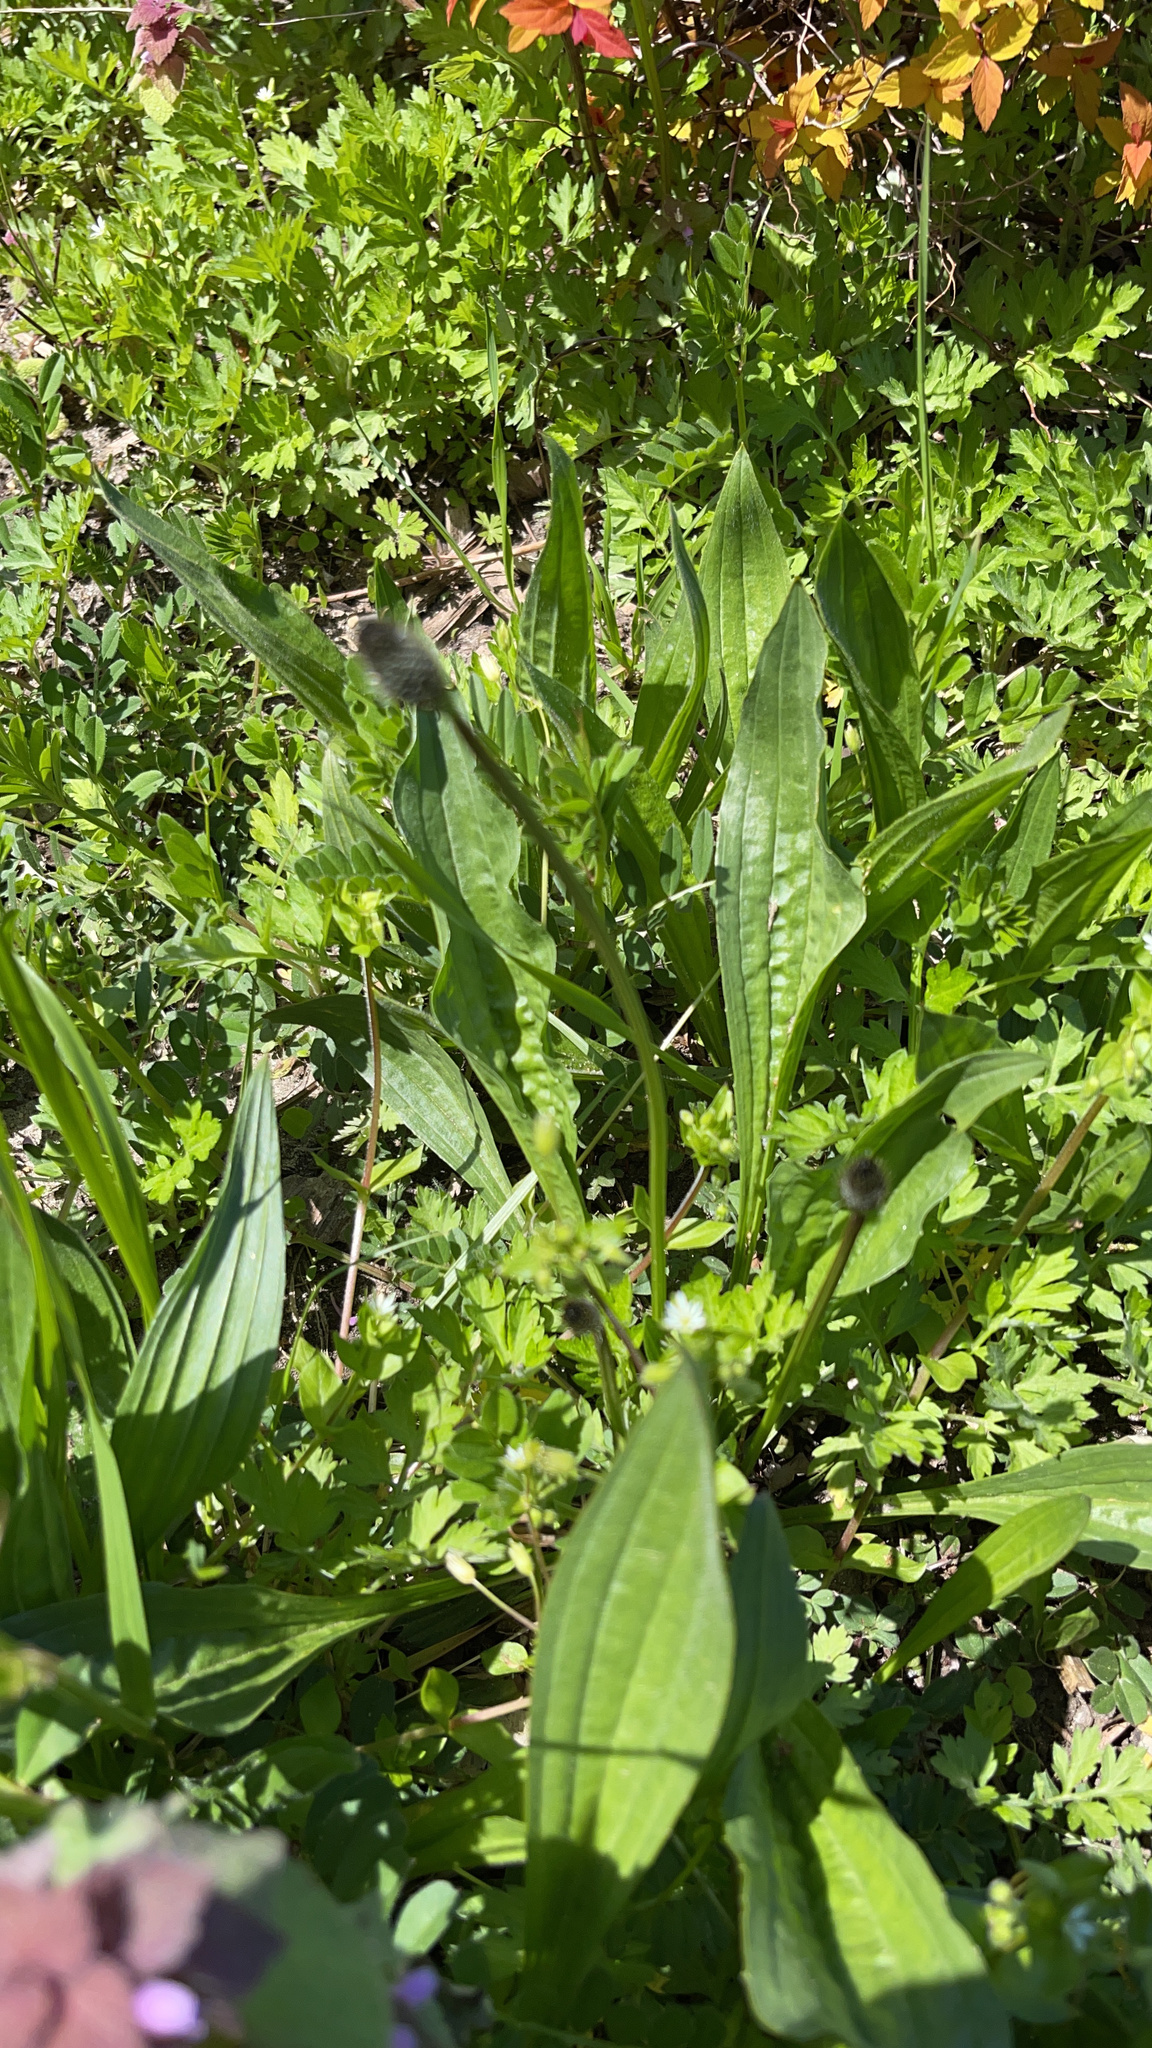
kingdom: Plantae
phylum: Tracheophyta
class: Magnoliopsida
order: Lamiales
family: Plantaginaceae
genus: Plantago
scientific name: Plantago lanceolata
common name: Ribwort plantain
